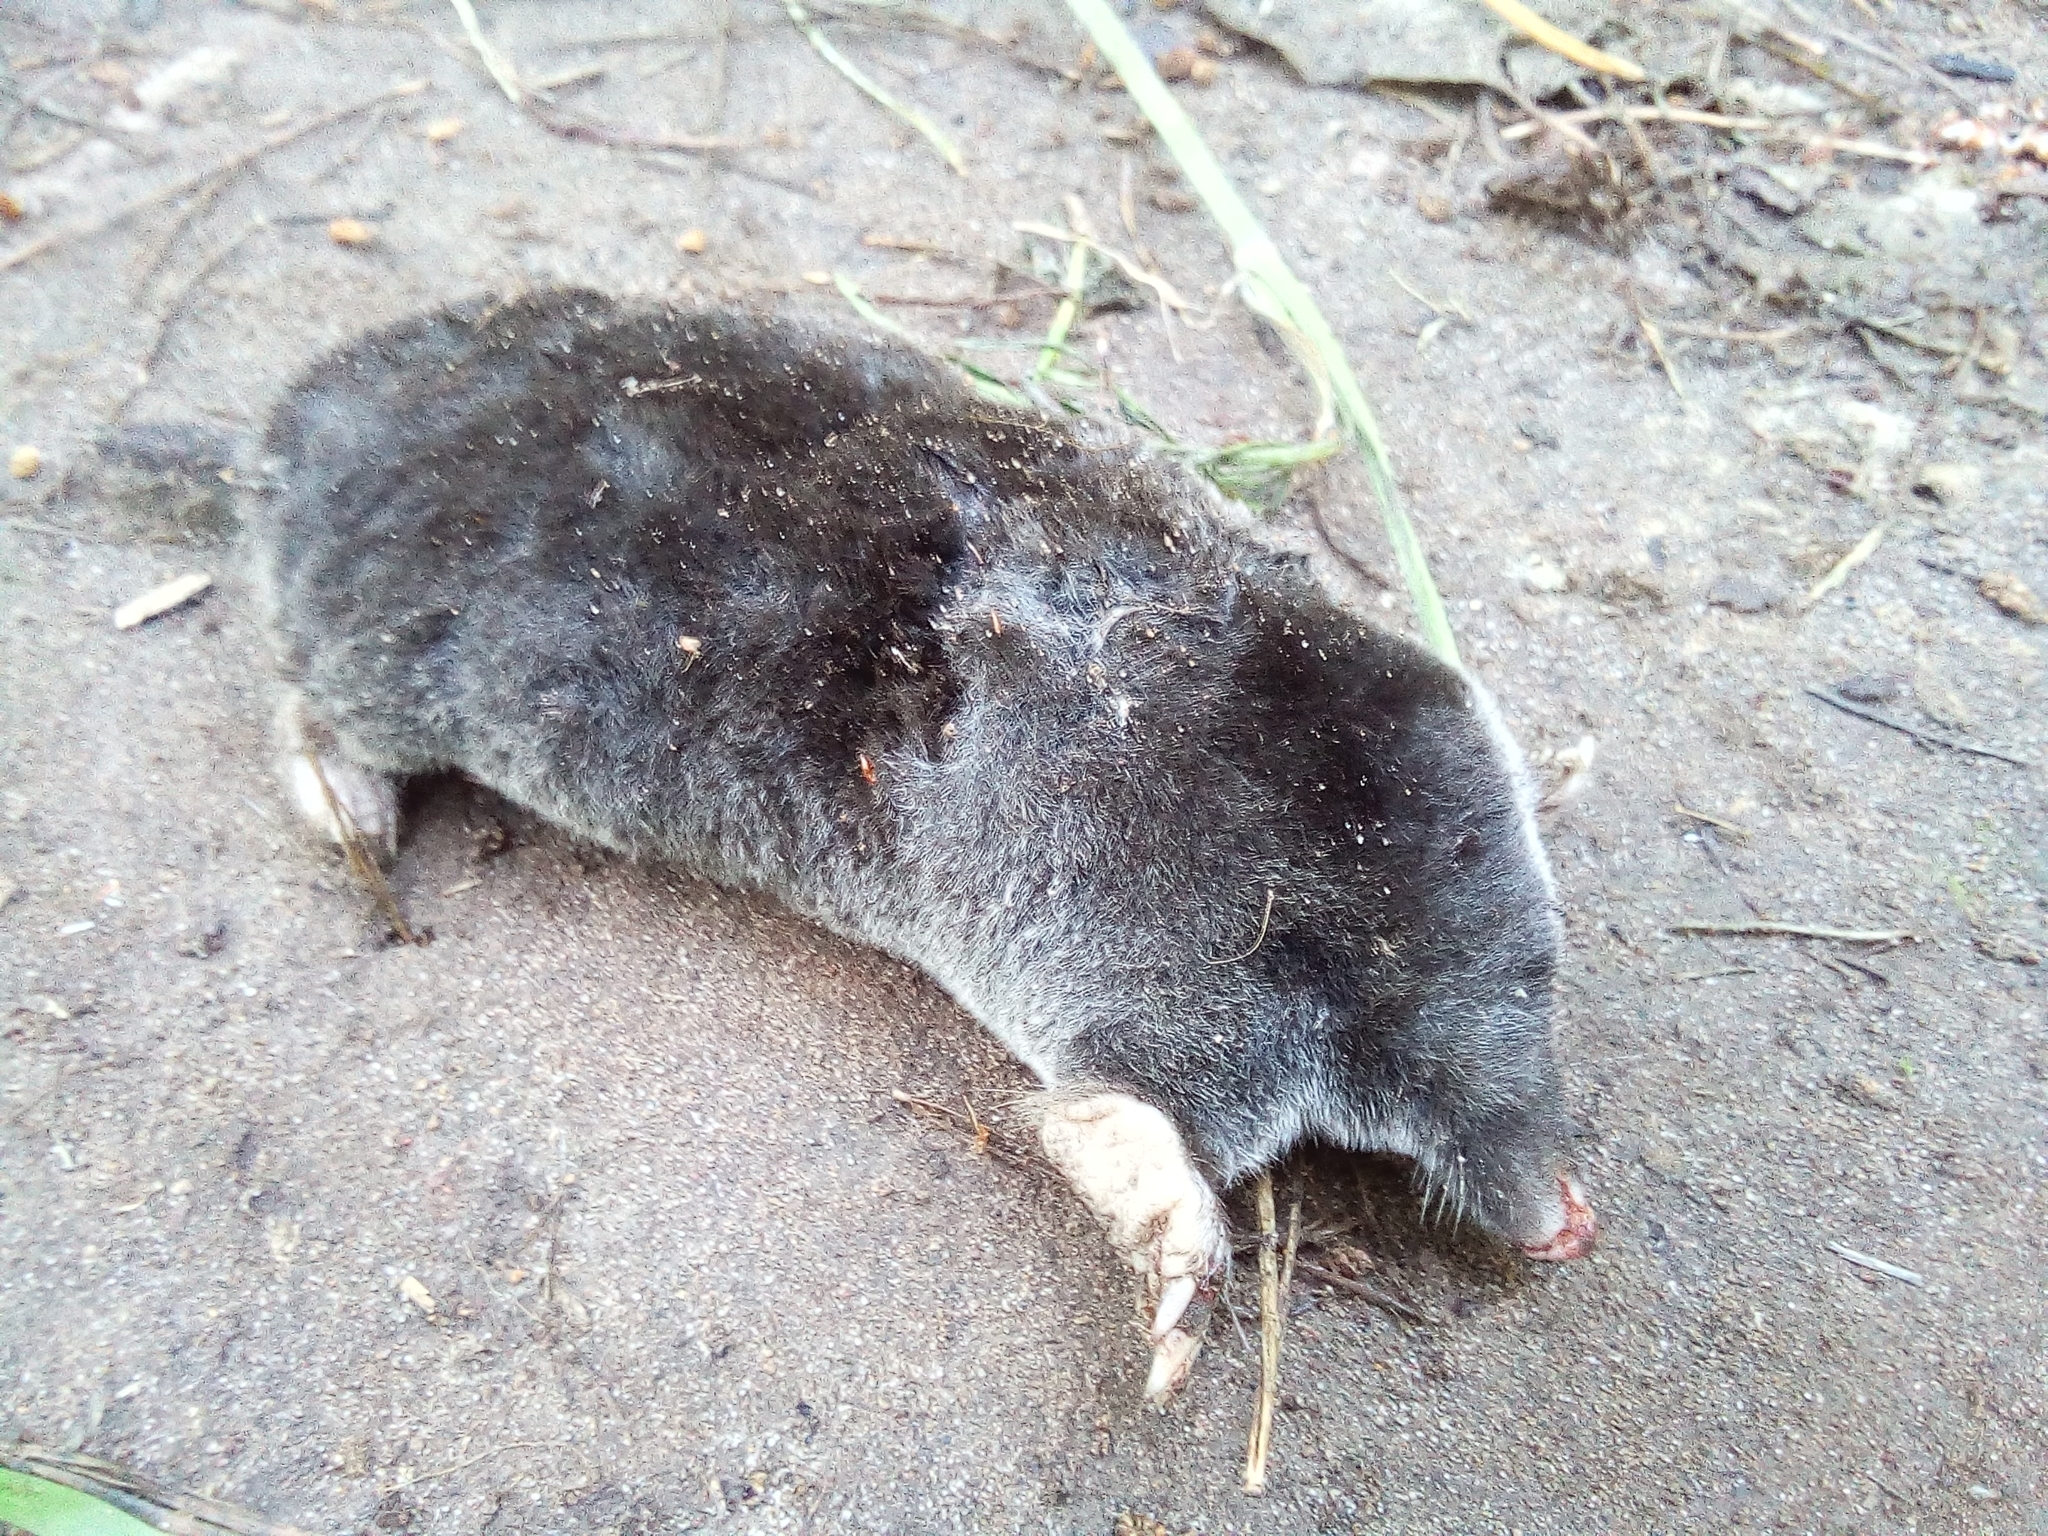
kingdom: Animalia
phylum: Chordata
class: Mammalia
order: Soricomorpha
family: Talpidae
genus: Talpa
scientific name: Talpa europaea
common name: European mole
